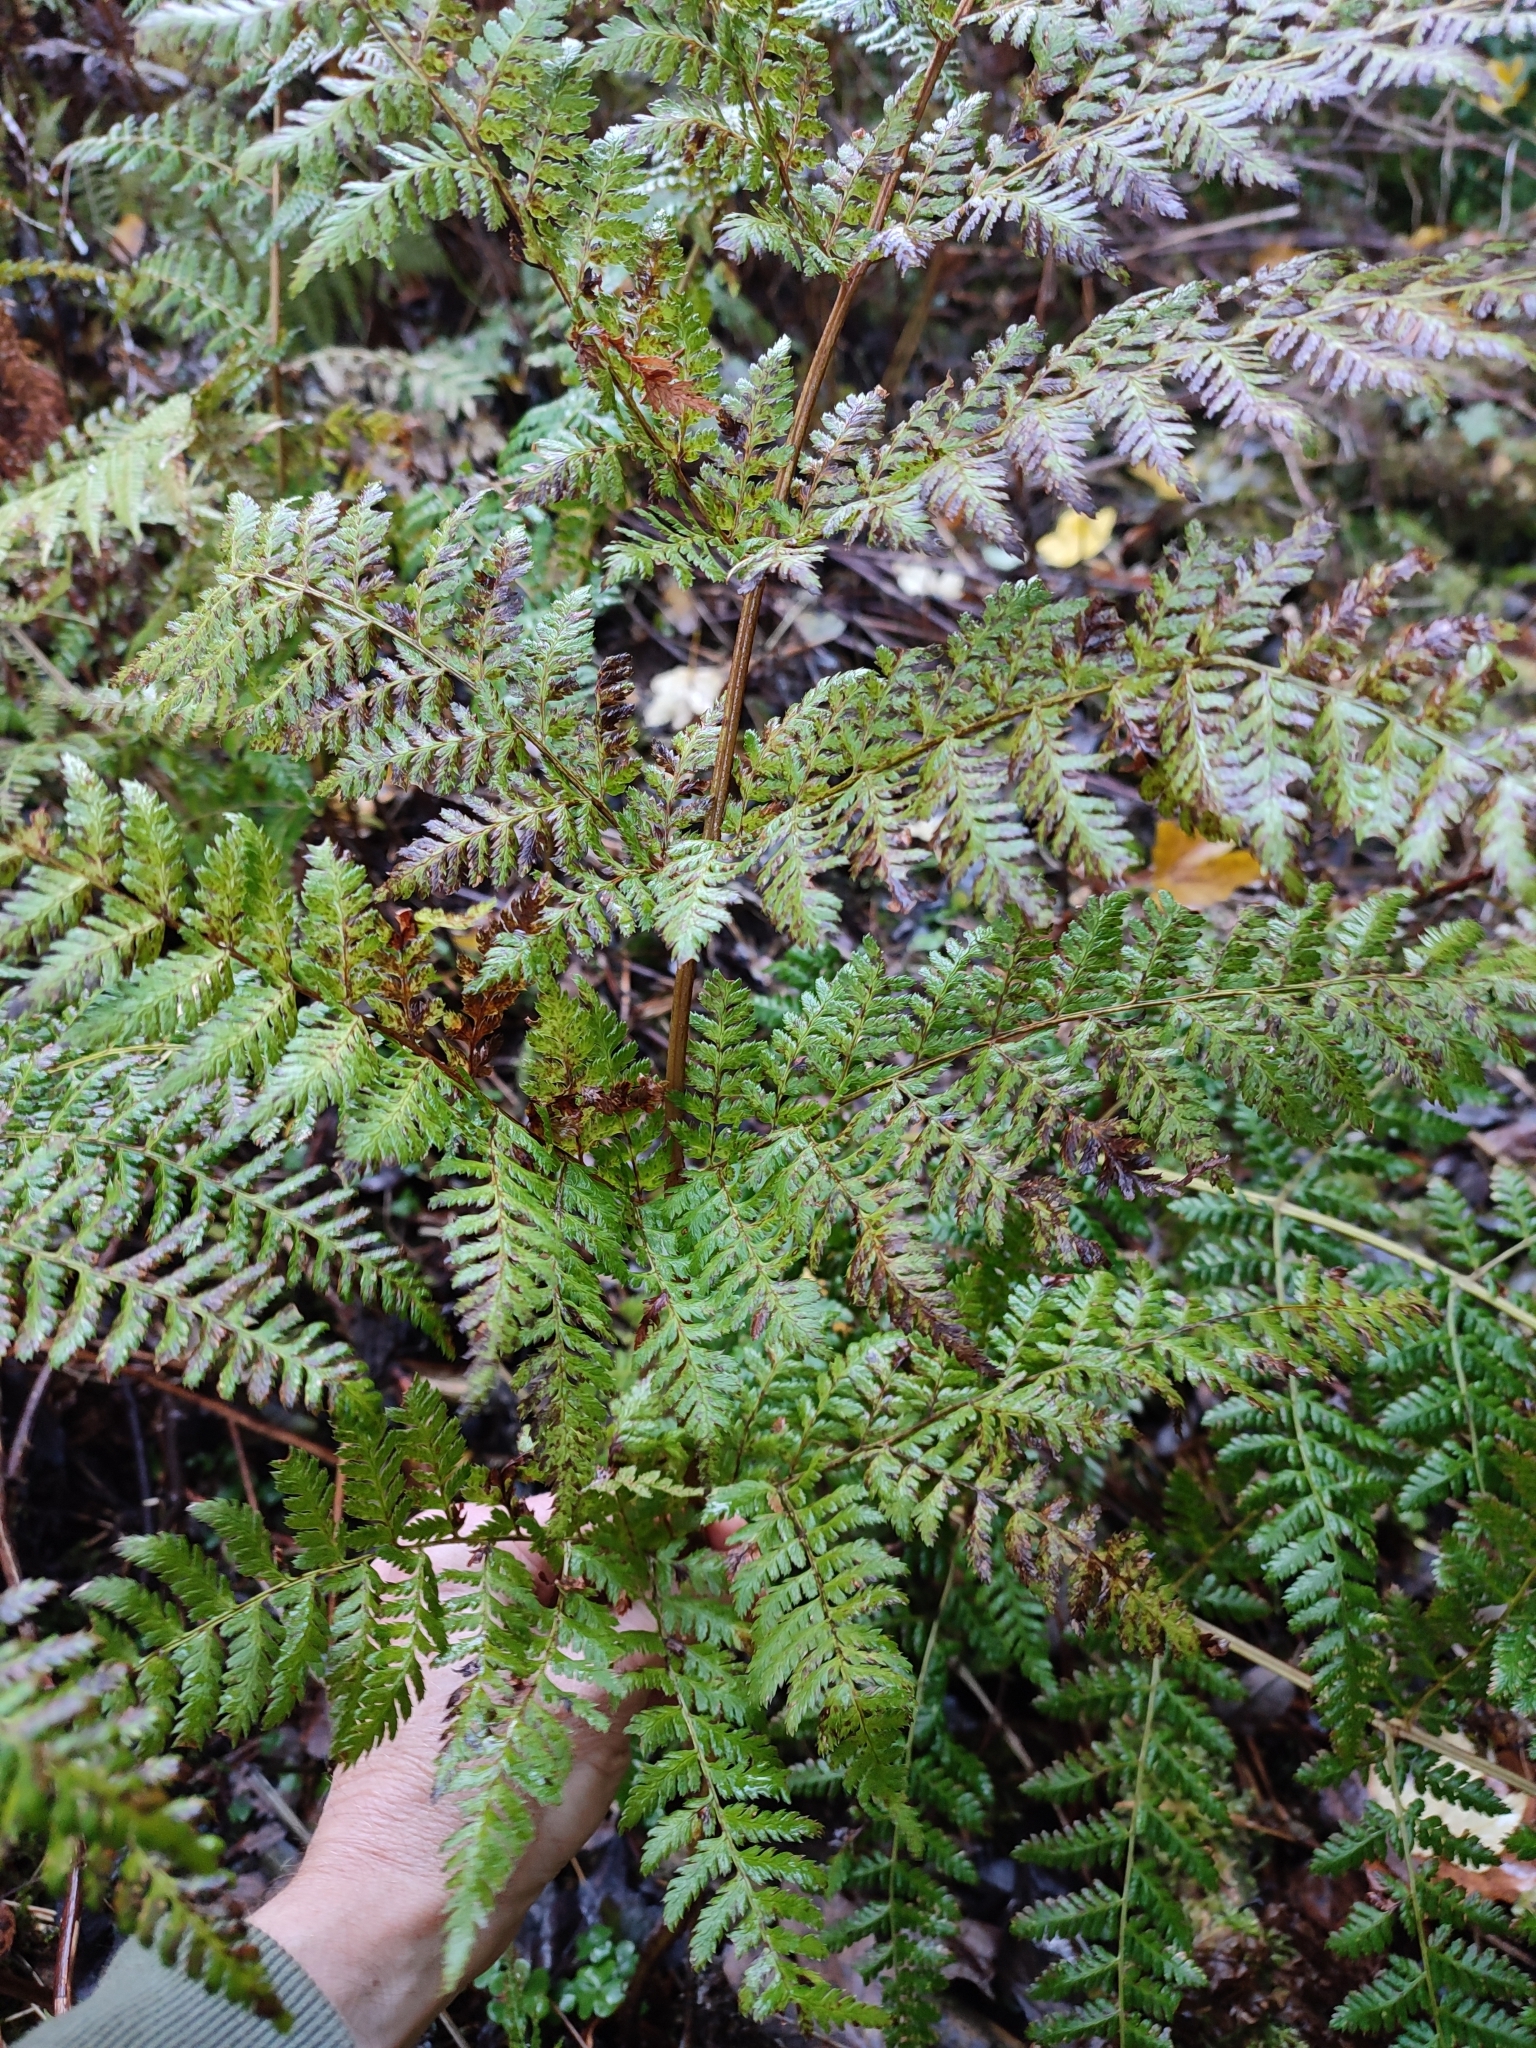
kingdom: Plantae
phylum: Tracheophyta
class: Polypodiopsida
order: Polypodiales
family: Dryopteridaceae
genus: Dryopteris
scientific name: Dryopteris expansa
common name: Northern buckler fern
